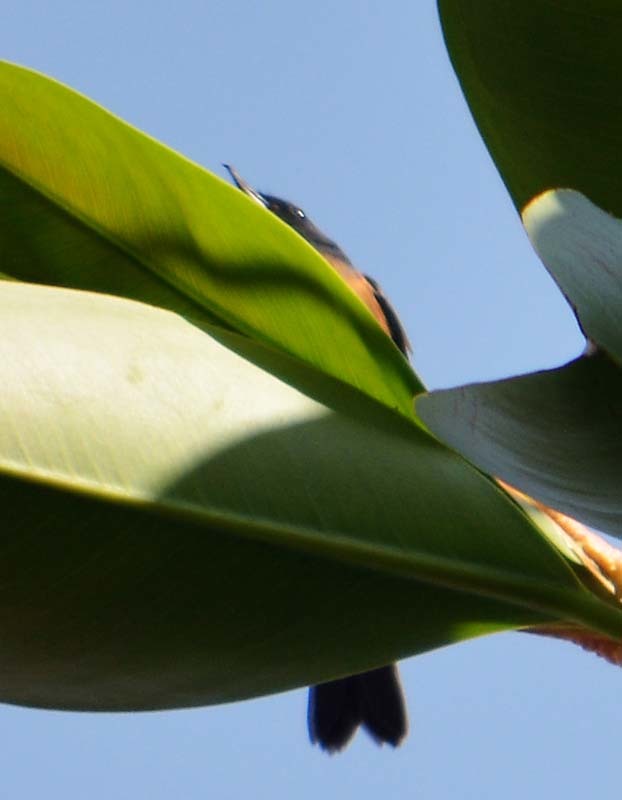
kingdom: Animalia
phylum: Chordata
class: Aves
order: Passeriformes
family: Thraupidae
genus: Diglossa
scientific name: Diglossa baritula
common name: Cinnamon-bellied flowerpiercer
